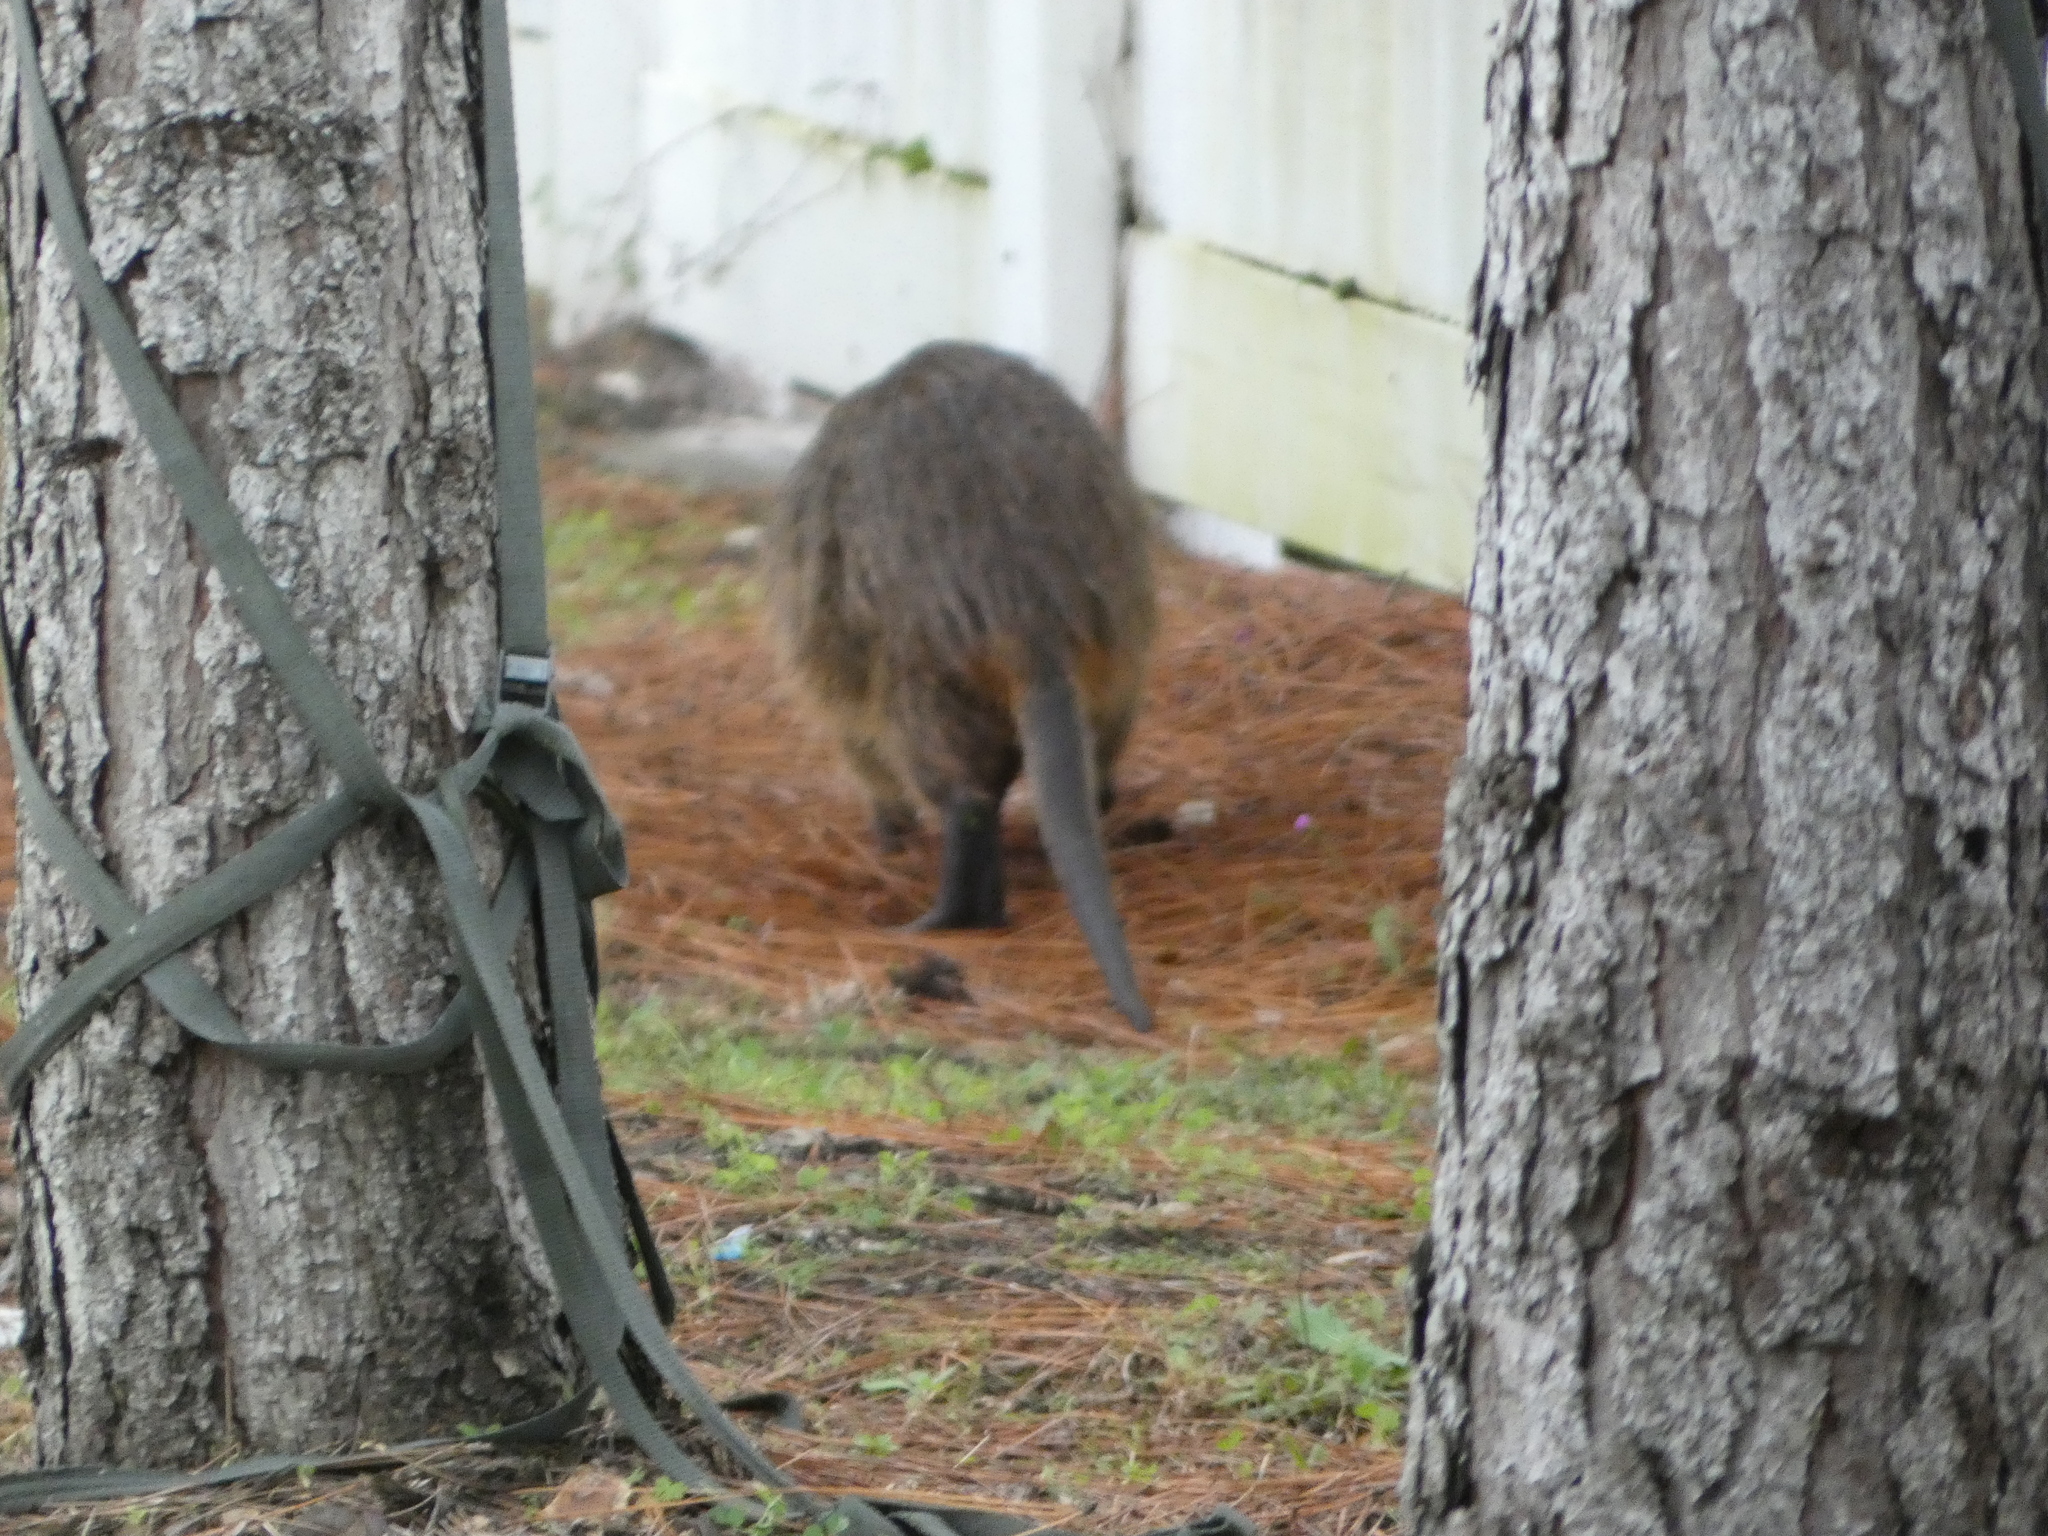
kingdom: Animalia
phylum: Chordata
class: Mammalia
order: Rodentia
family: Myocastoridae
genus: Myocastor
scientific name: Myocastor coypus
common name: Coypu
